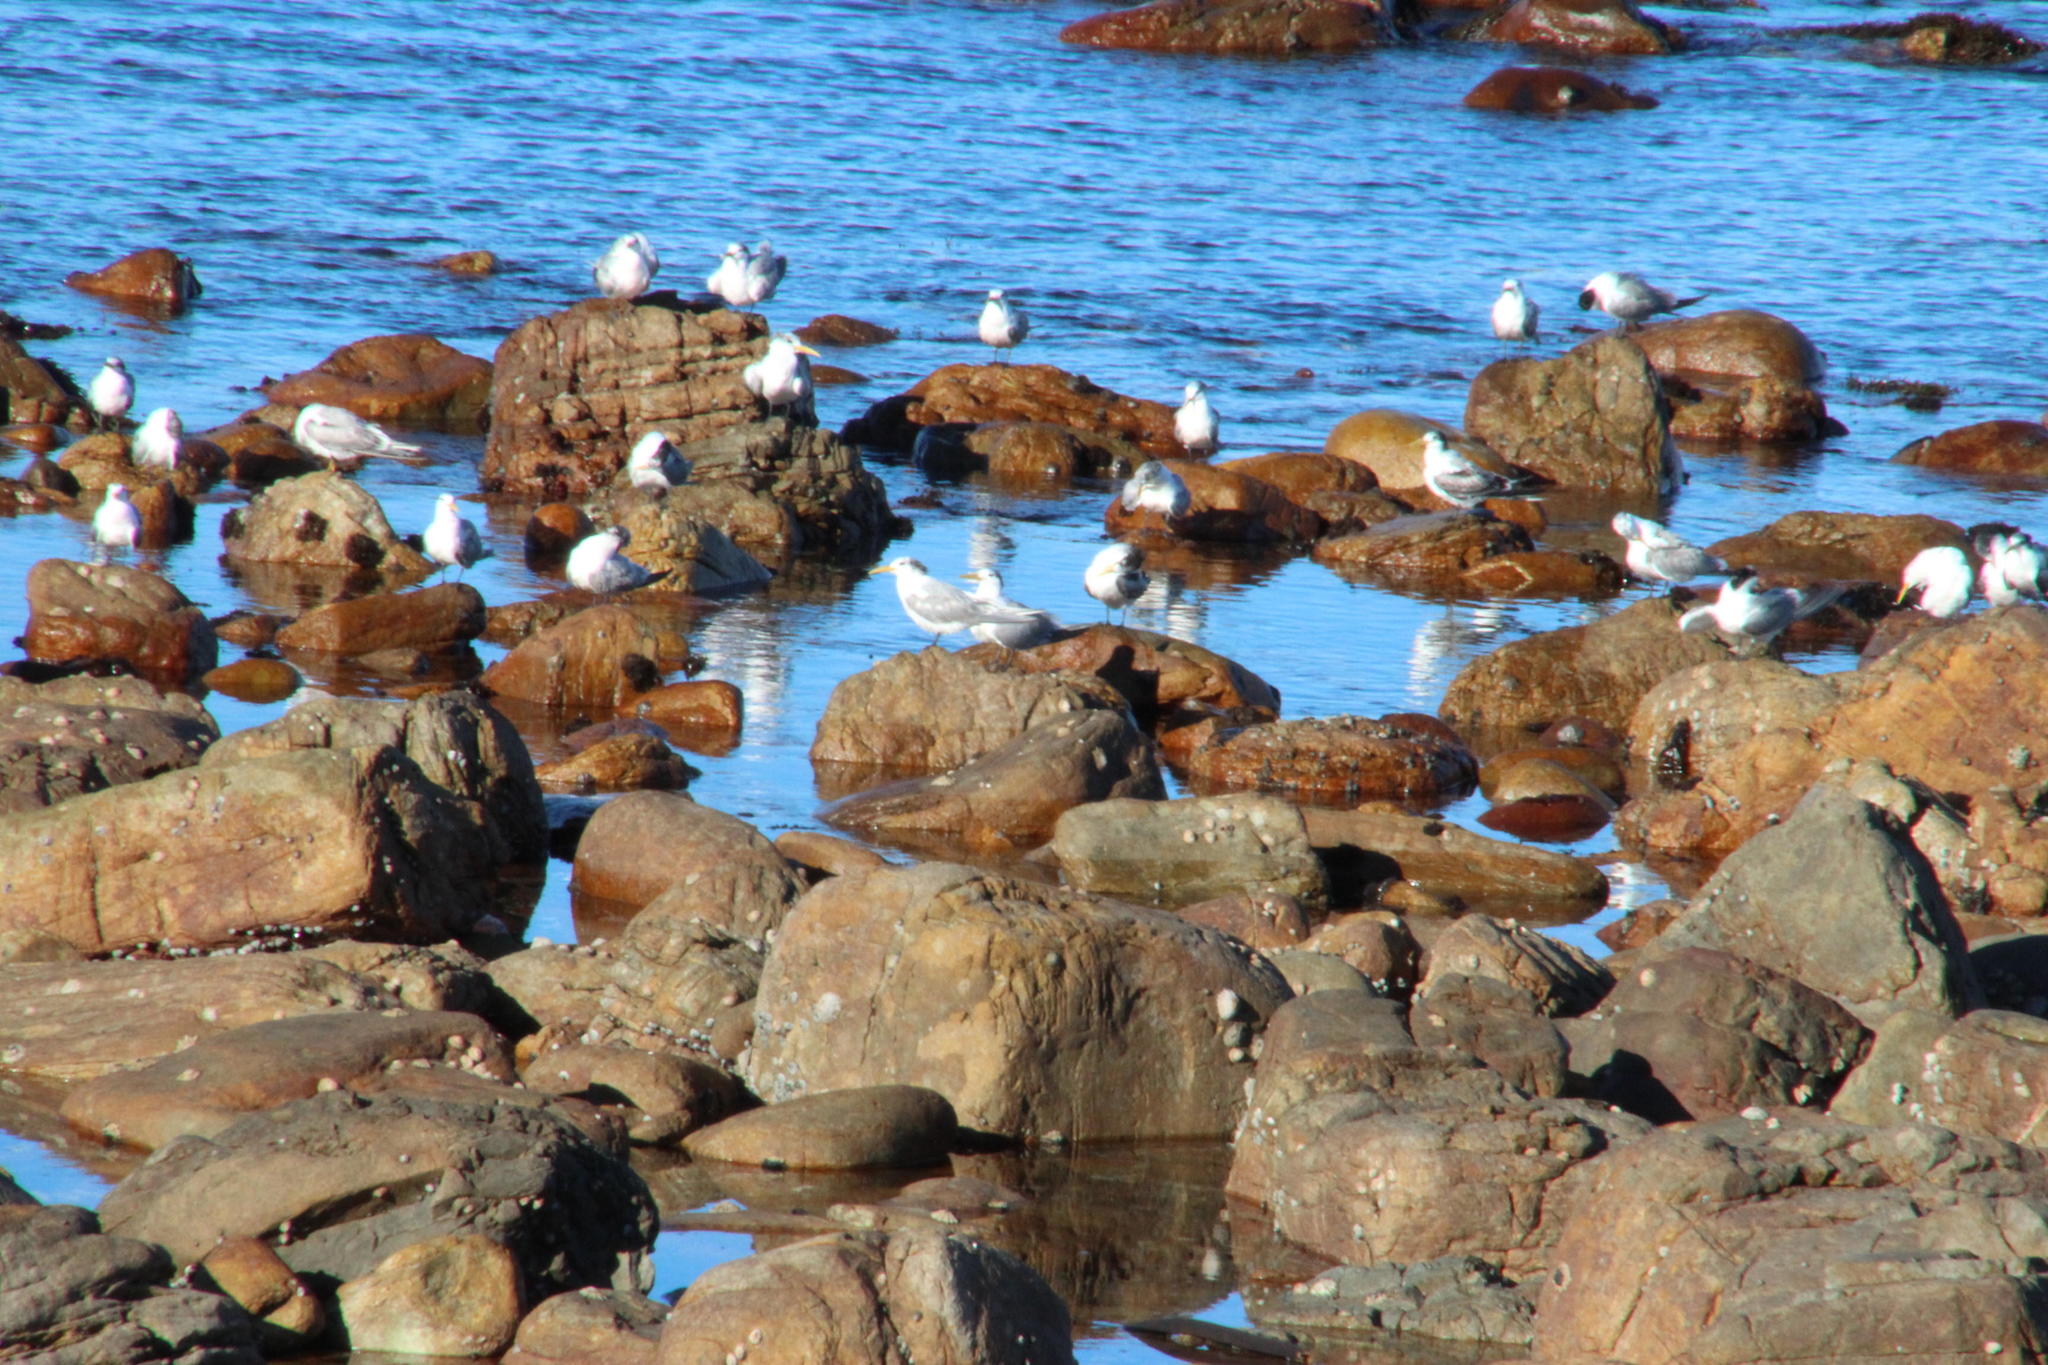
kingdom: Animalia
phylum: Chordata
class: Aves
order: Charadriiformes
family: Laridae
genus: Thalasseus
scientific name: Thalasseus bergii
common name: Greater crested tern
